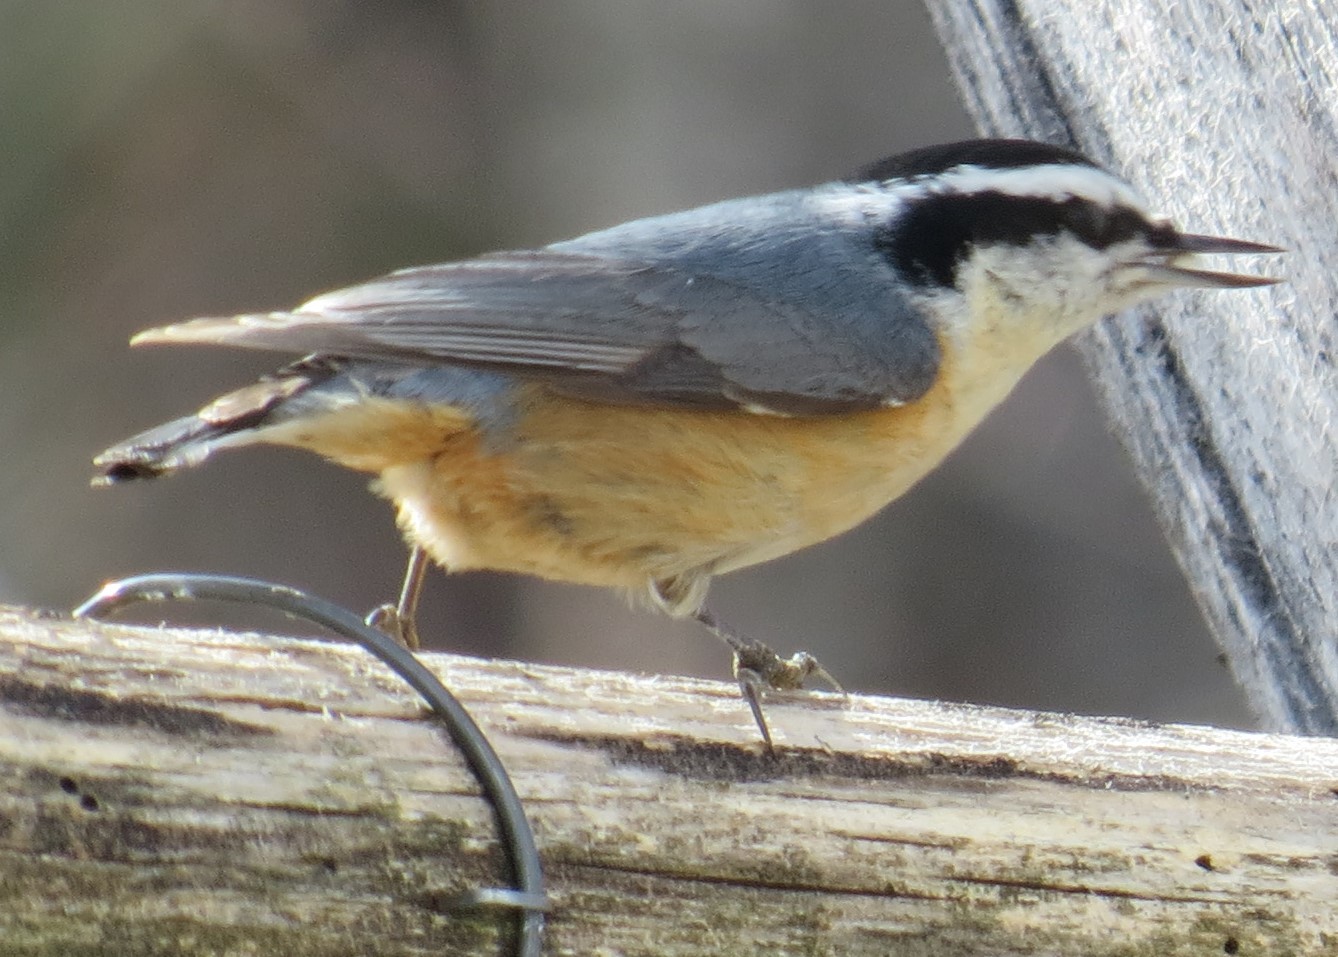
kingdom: Animalia
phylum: Chordata
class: Aves
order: Passeriformes
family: Sittidae
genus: Sitta
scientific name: Sitta canadensis
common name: Red-breasted nuthatch
